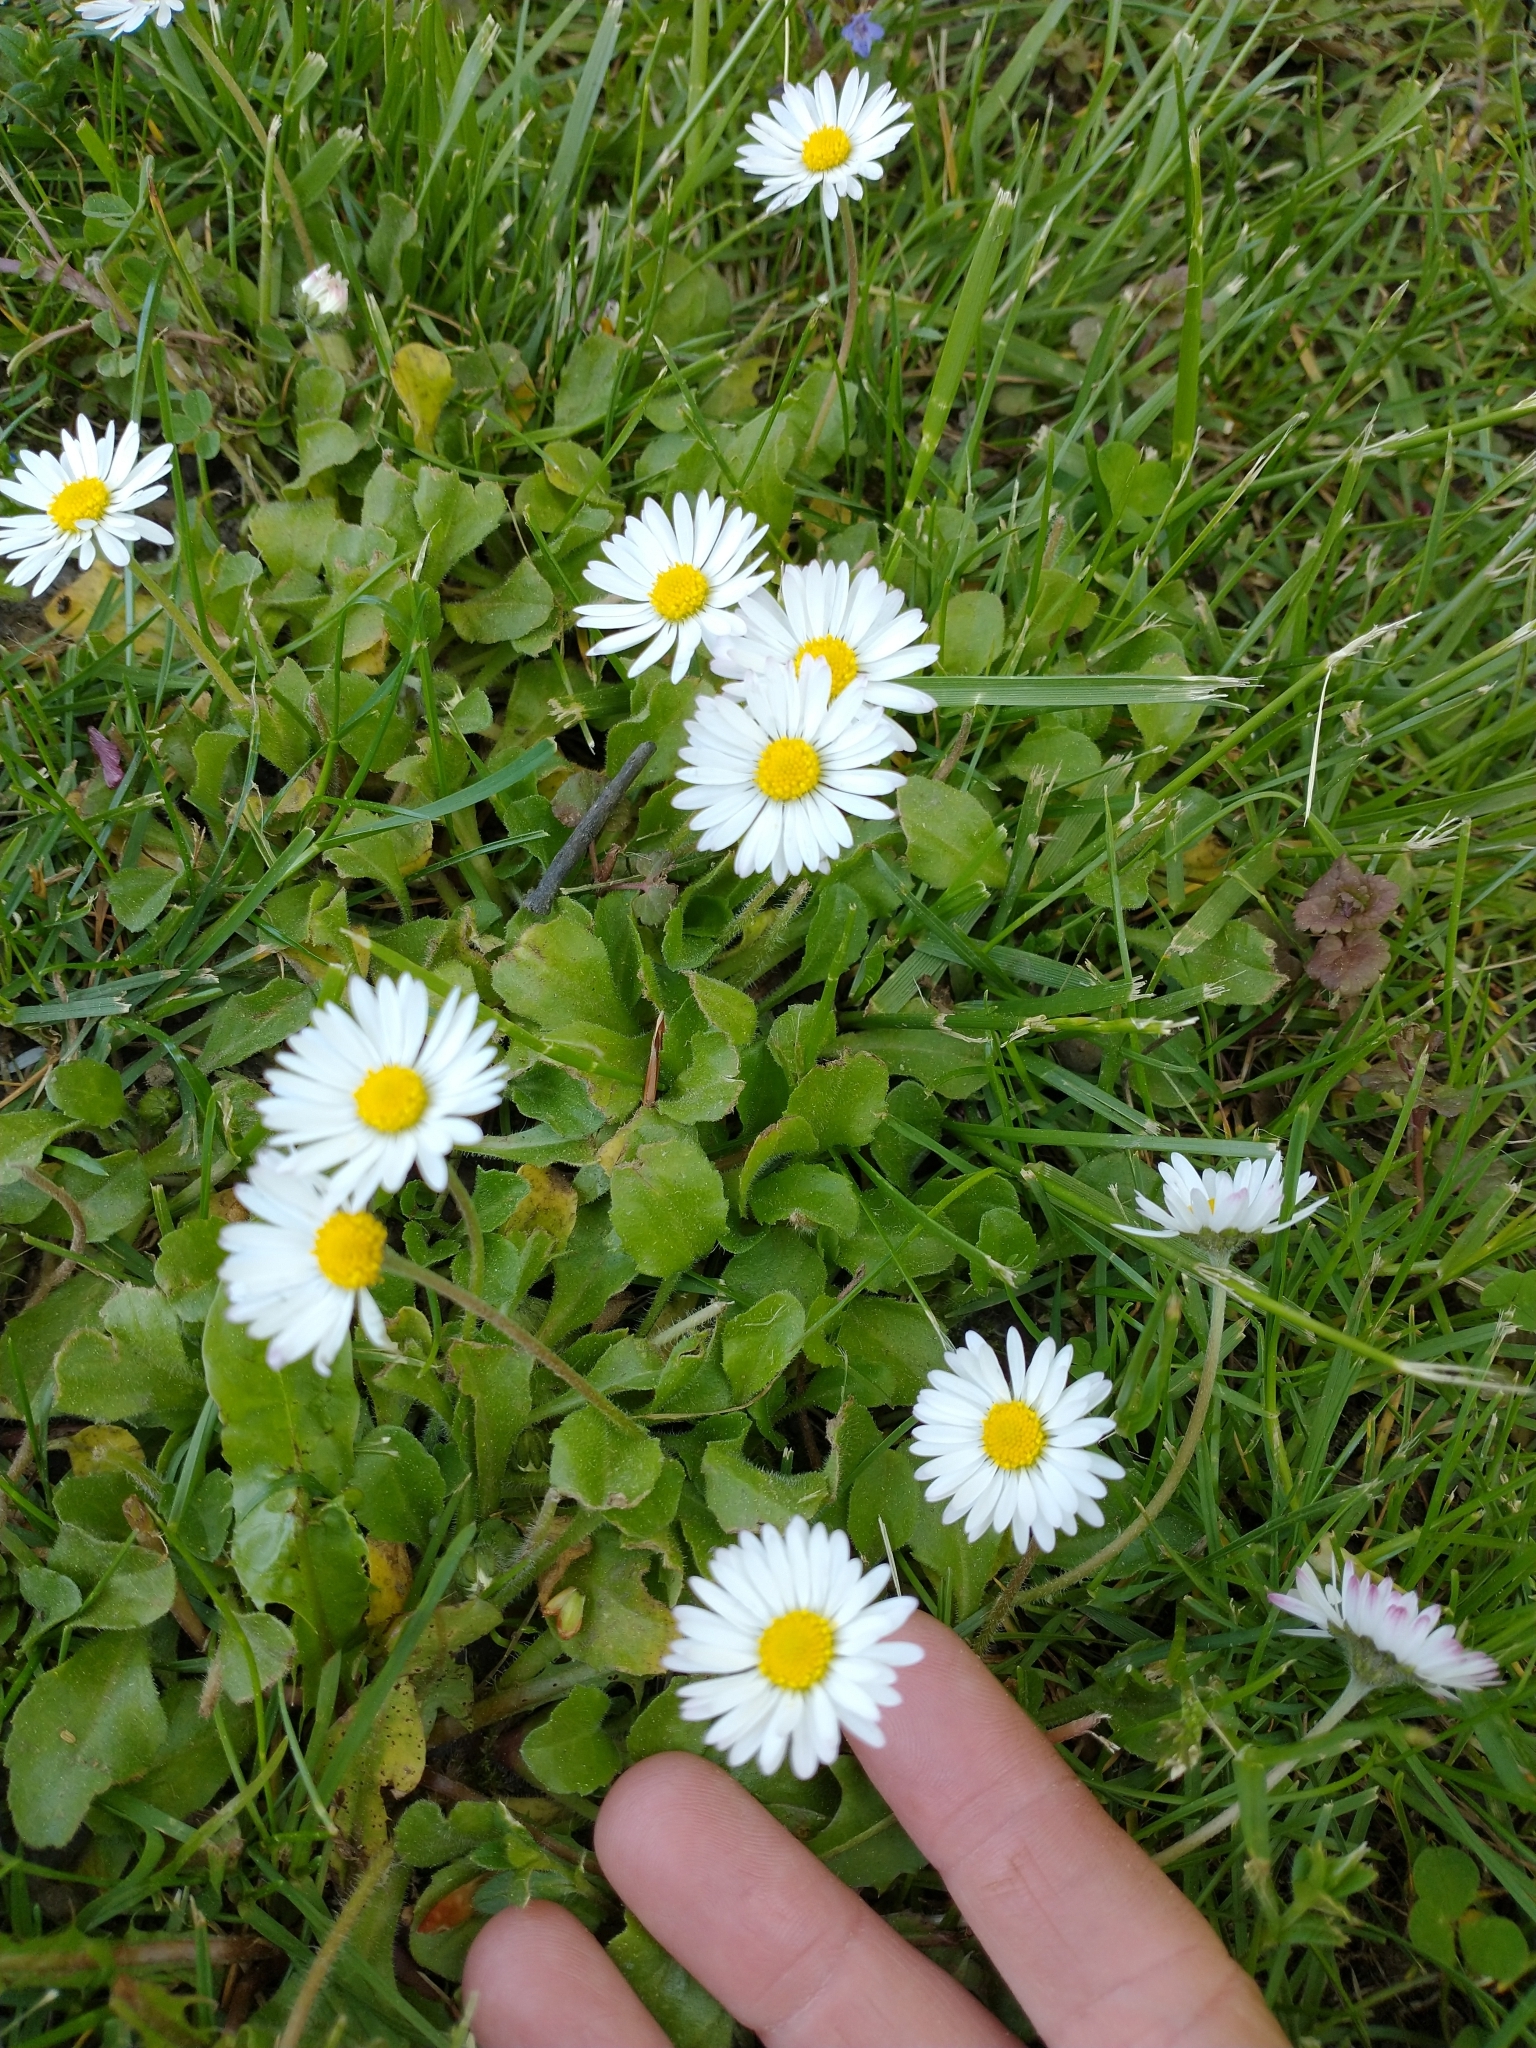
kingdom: Plantae
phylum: Tracheophyta
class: Magnoliopsida
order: Asterales
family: Asteraceae
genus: Bellis
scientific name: Bellis perennis
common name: Lawndaisy
